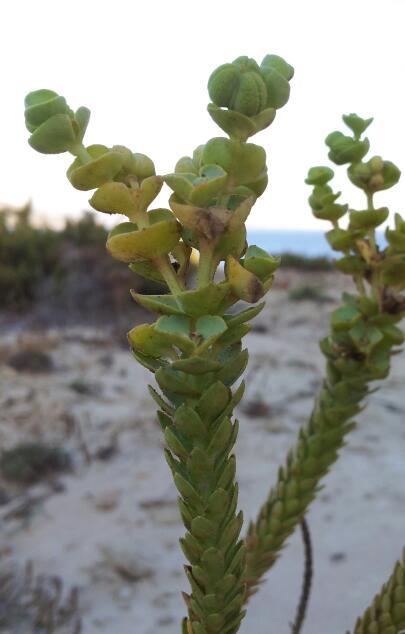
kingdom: Plantae
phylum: Tracheophyta
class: Magnoliopsida
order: Malpighiales
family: Euphorbiaceae
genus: Euphorbia
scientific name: Euphorbia paralias
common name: Sea spurge
